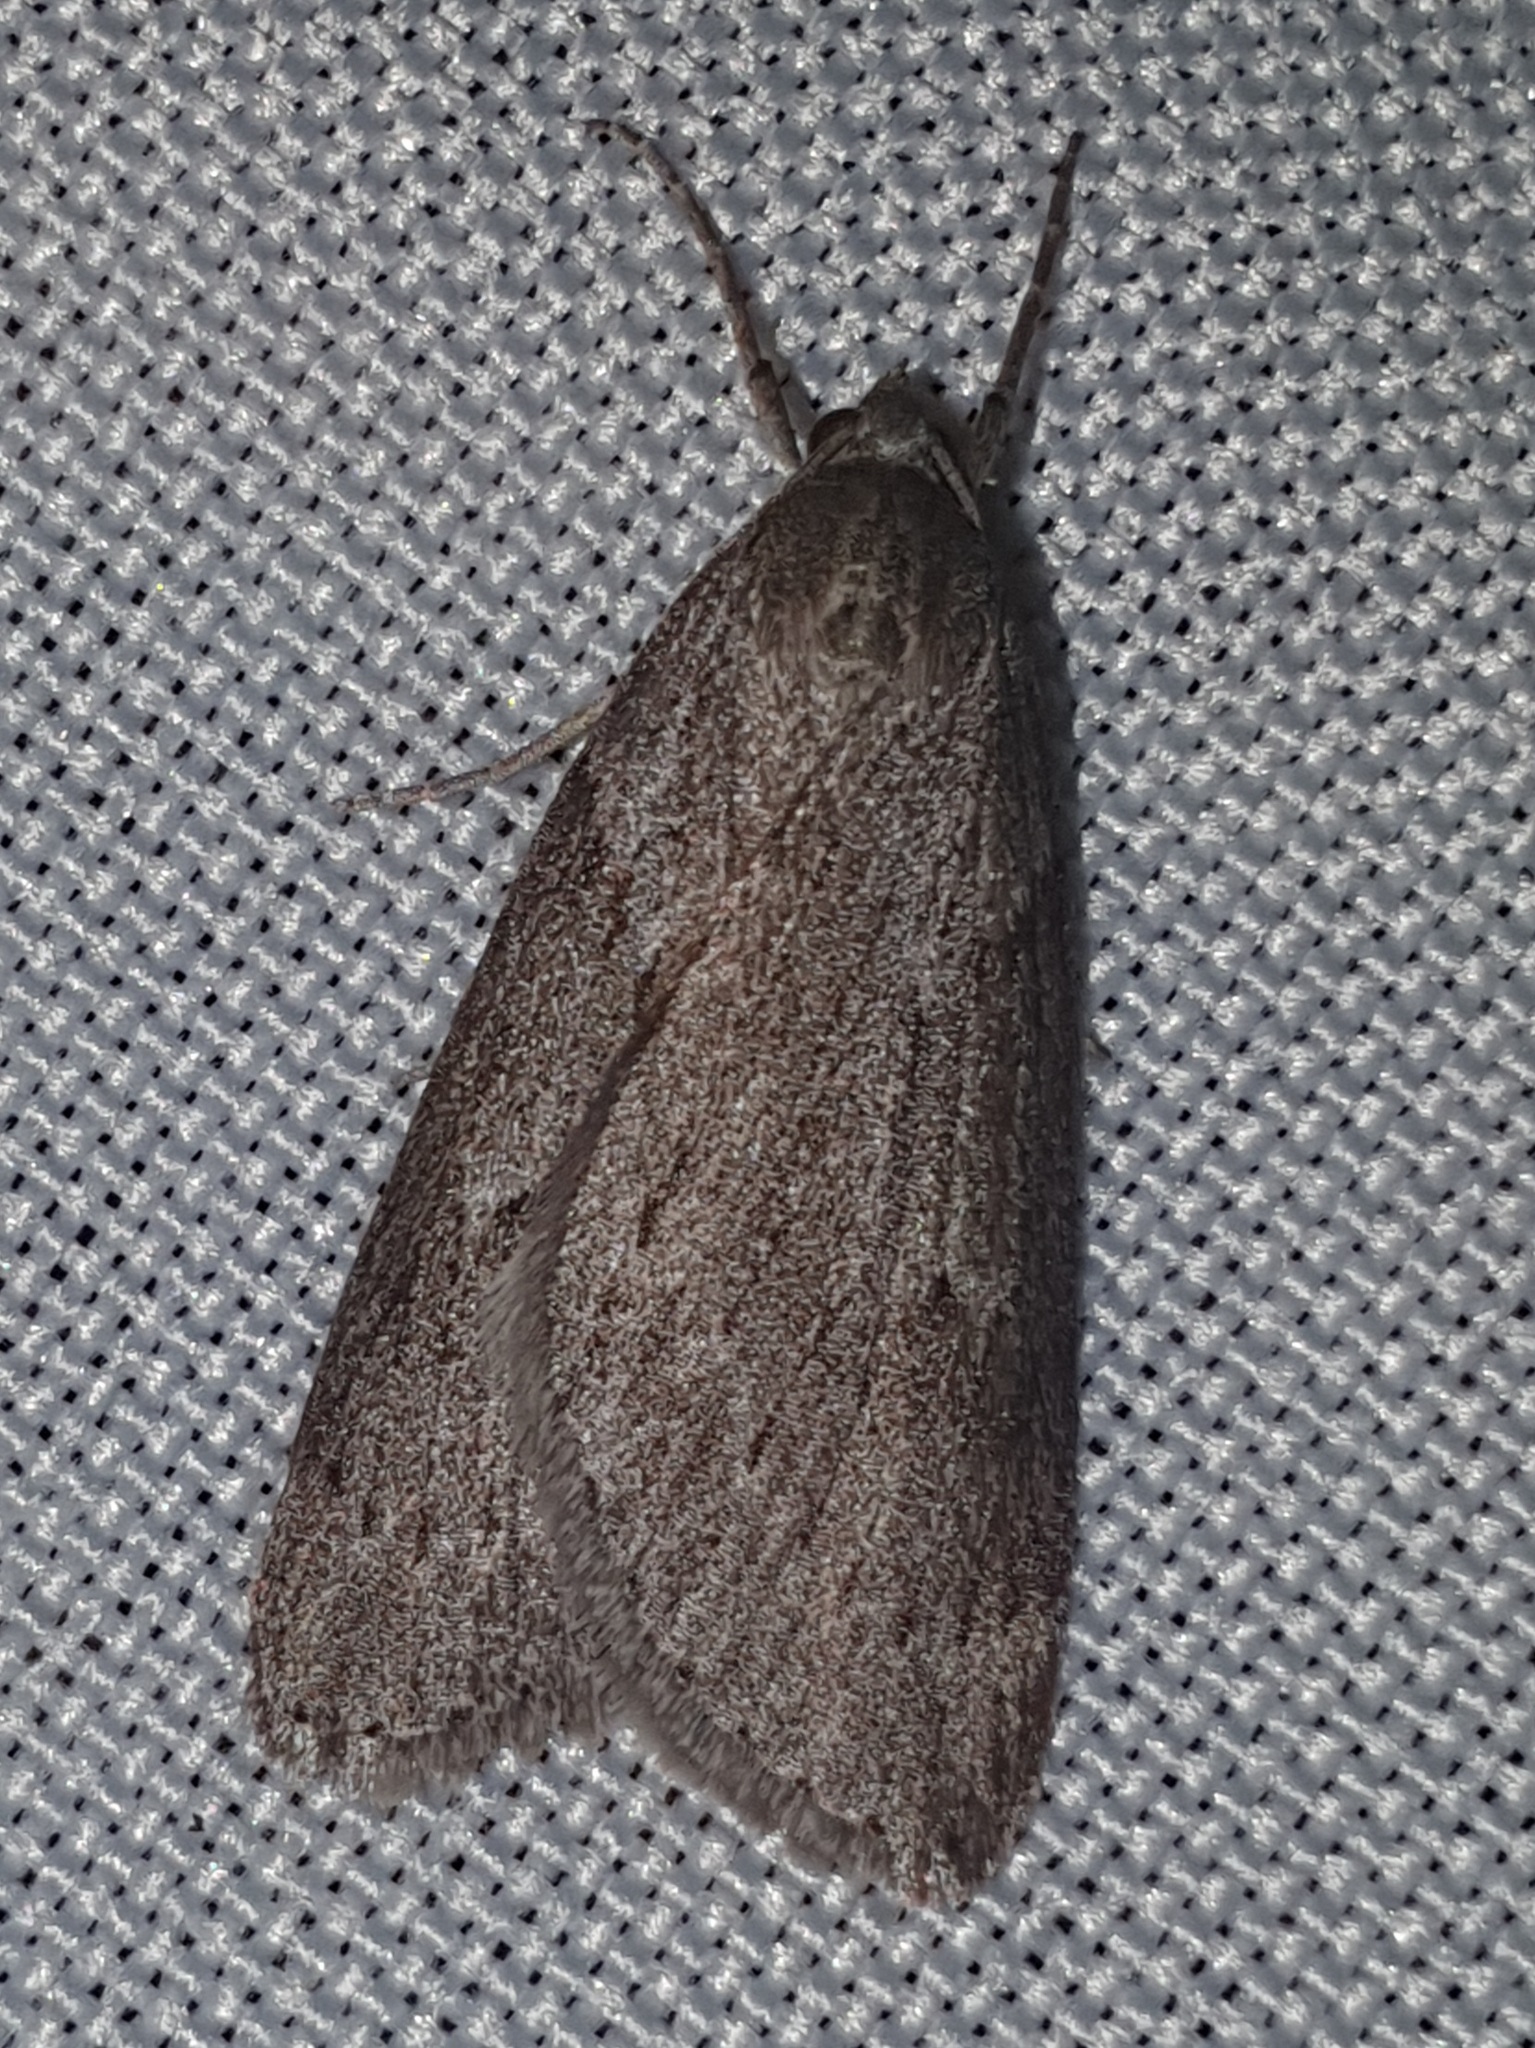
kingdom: Animalia
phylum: Arthropoda
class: Insecta
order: Lepidoptera
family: Geometridae
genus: Pachycnemia
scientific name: Pachycnemia hippocastanaria
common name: Horse chestnut
